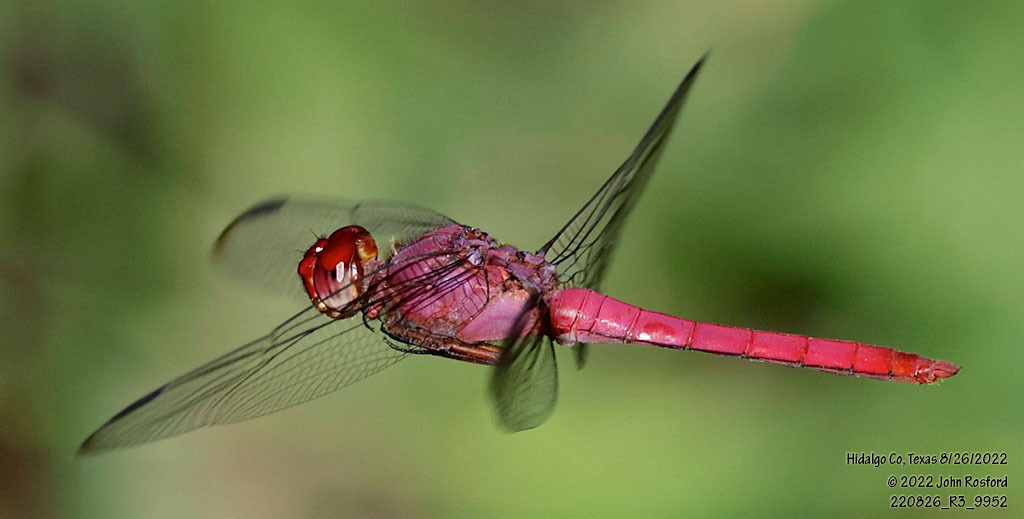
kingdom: Animalia
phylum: Arthropoda
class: Insecta
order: Odonata
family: Libellulidae
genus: Orthemis
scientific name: Orthemis discolor
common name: Carmine skimmer
